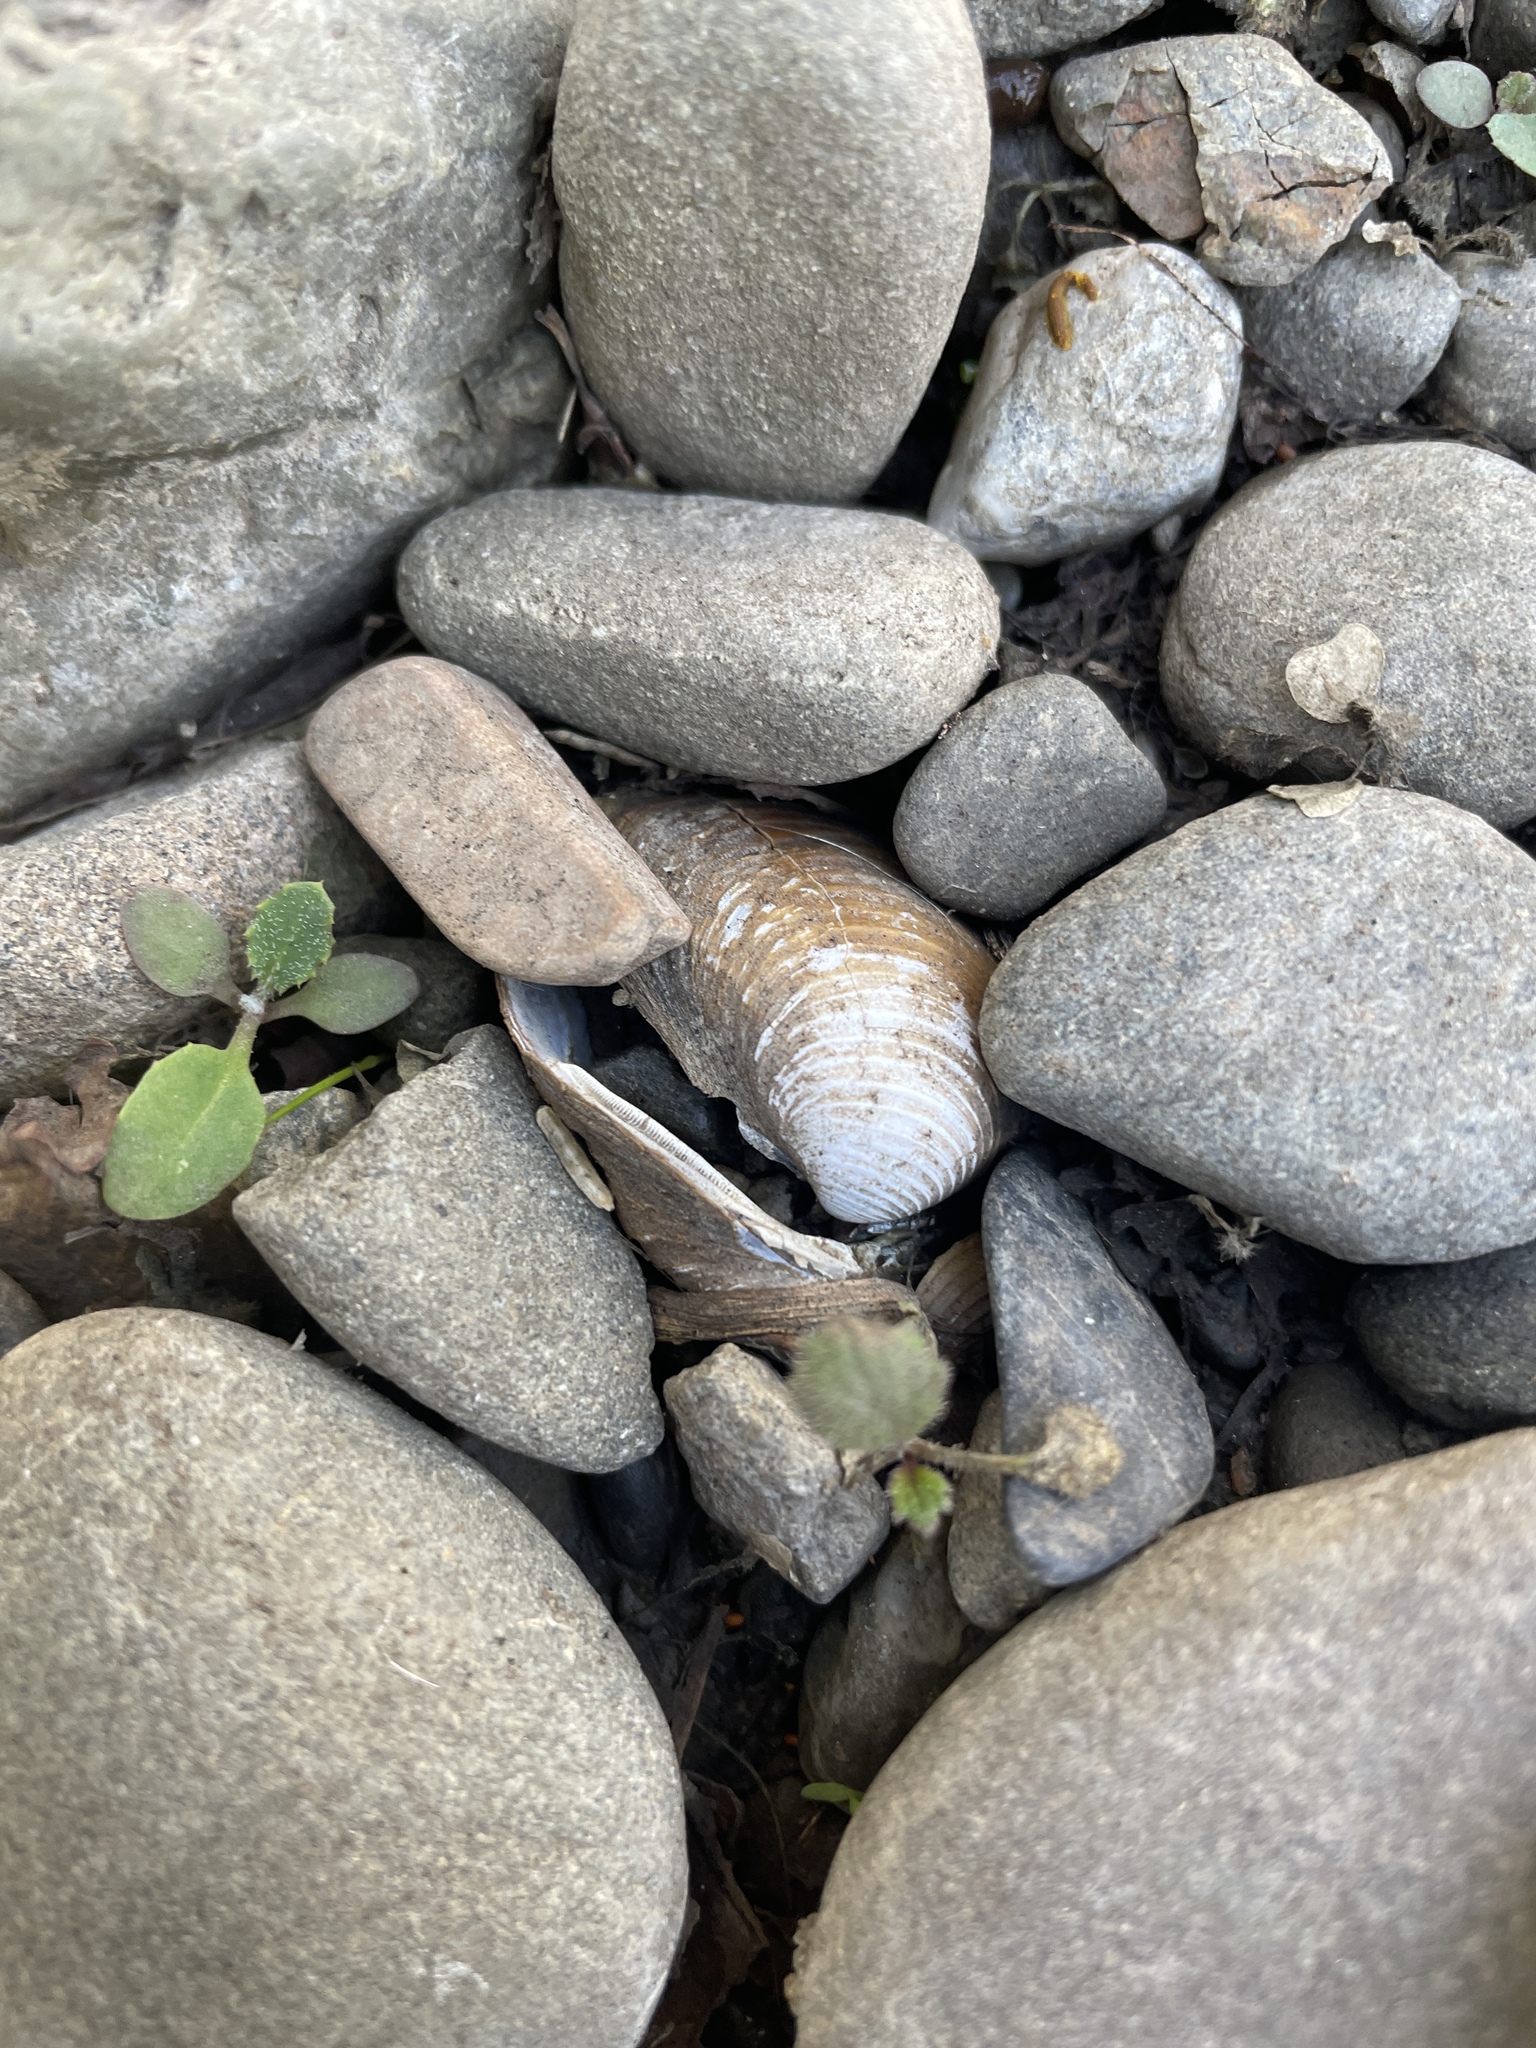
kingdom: Animalia
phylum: Mollusca
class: Bivalvia
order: Venerida
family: Cyrenidae
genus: Corbicula
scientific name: Corbicula fluminea
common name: Asian clam
